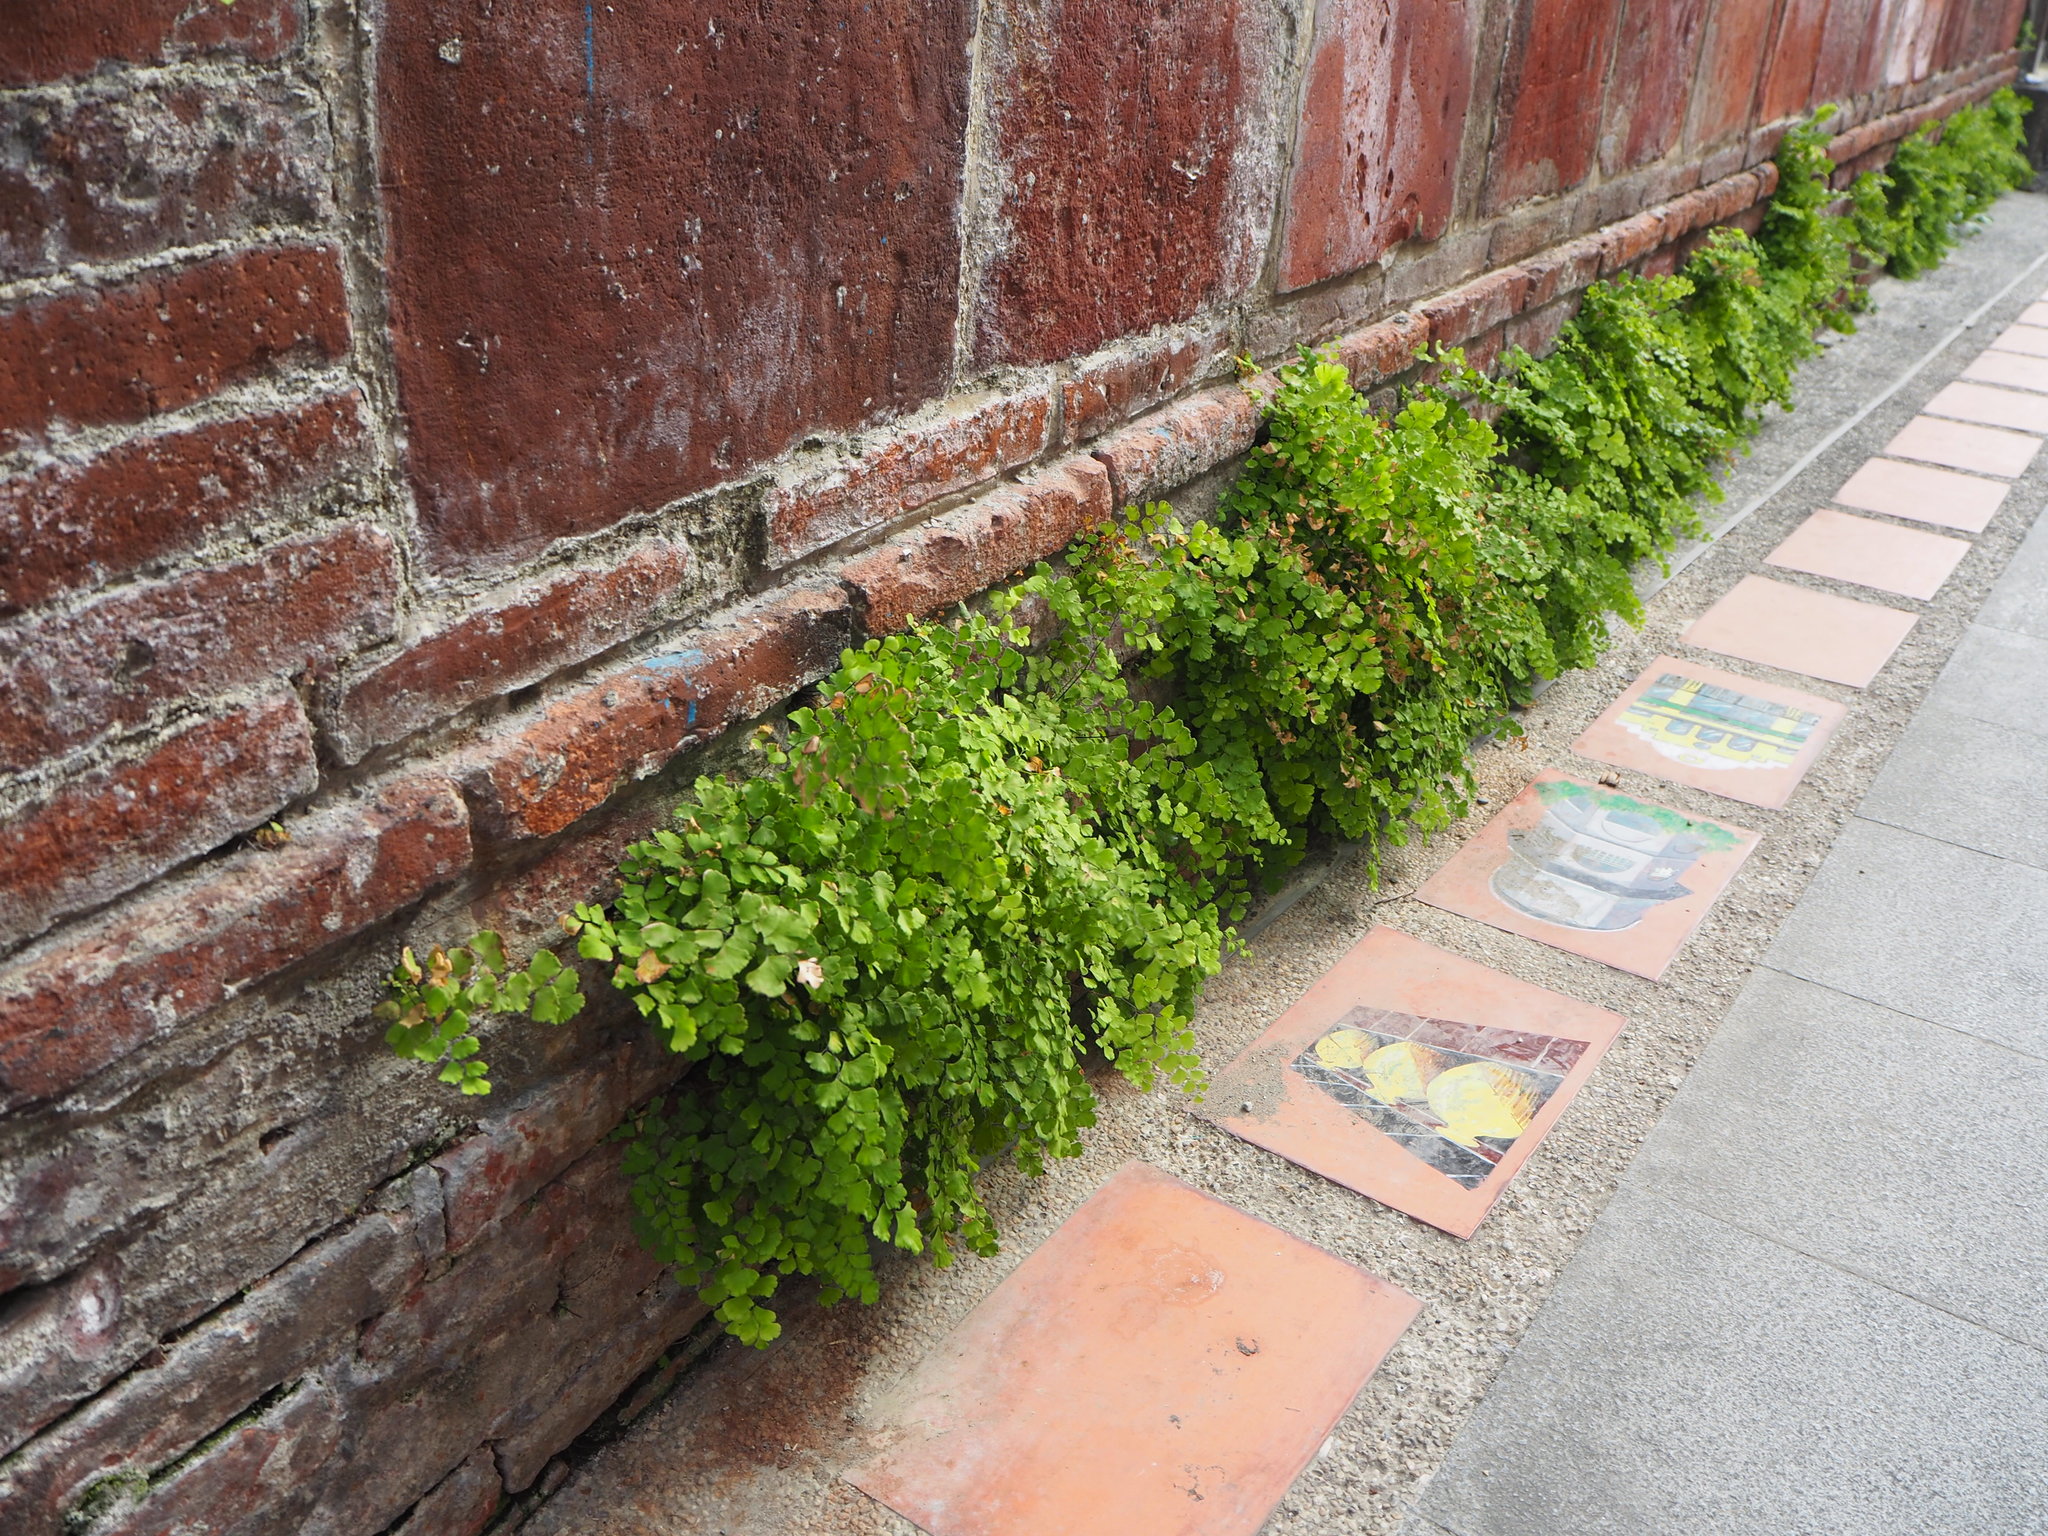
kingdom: Plantae
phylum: Tracheophyta
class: Polypodiopsida
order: Polypodiales
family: Pteridaceae
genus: Adiantum
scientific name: Adiantum capillus-veneris
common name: Maidenhair fern
